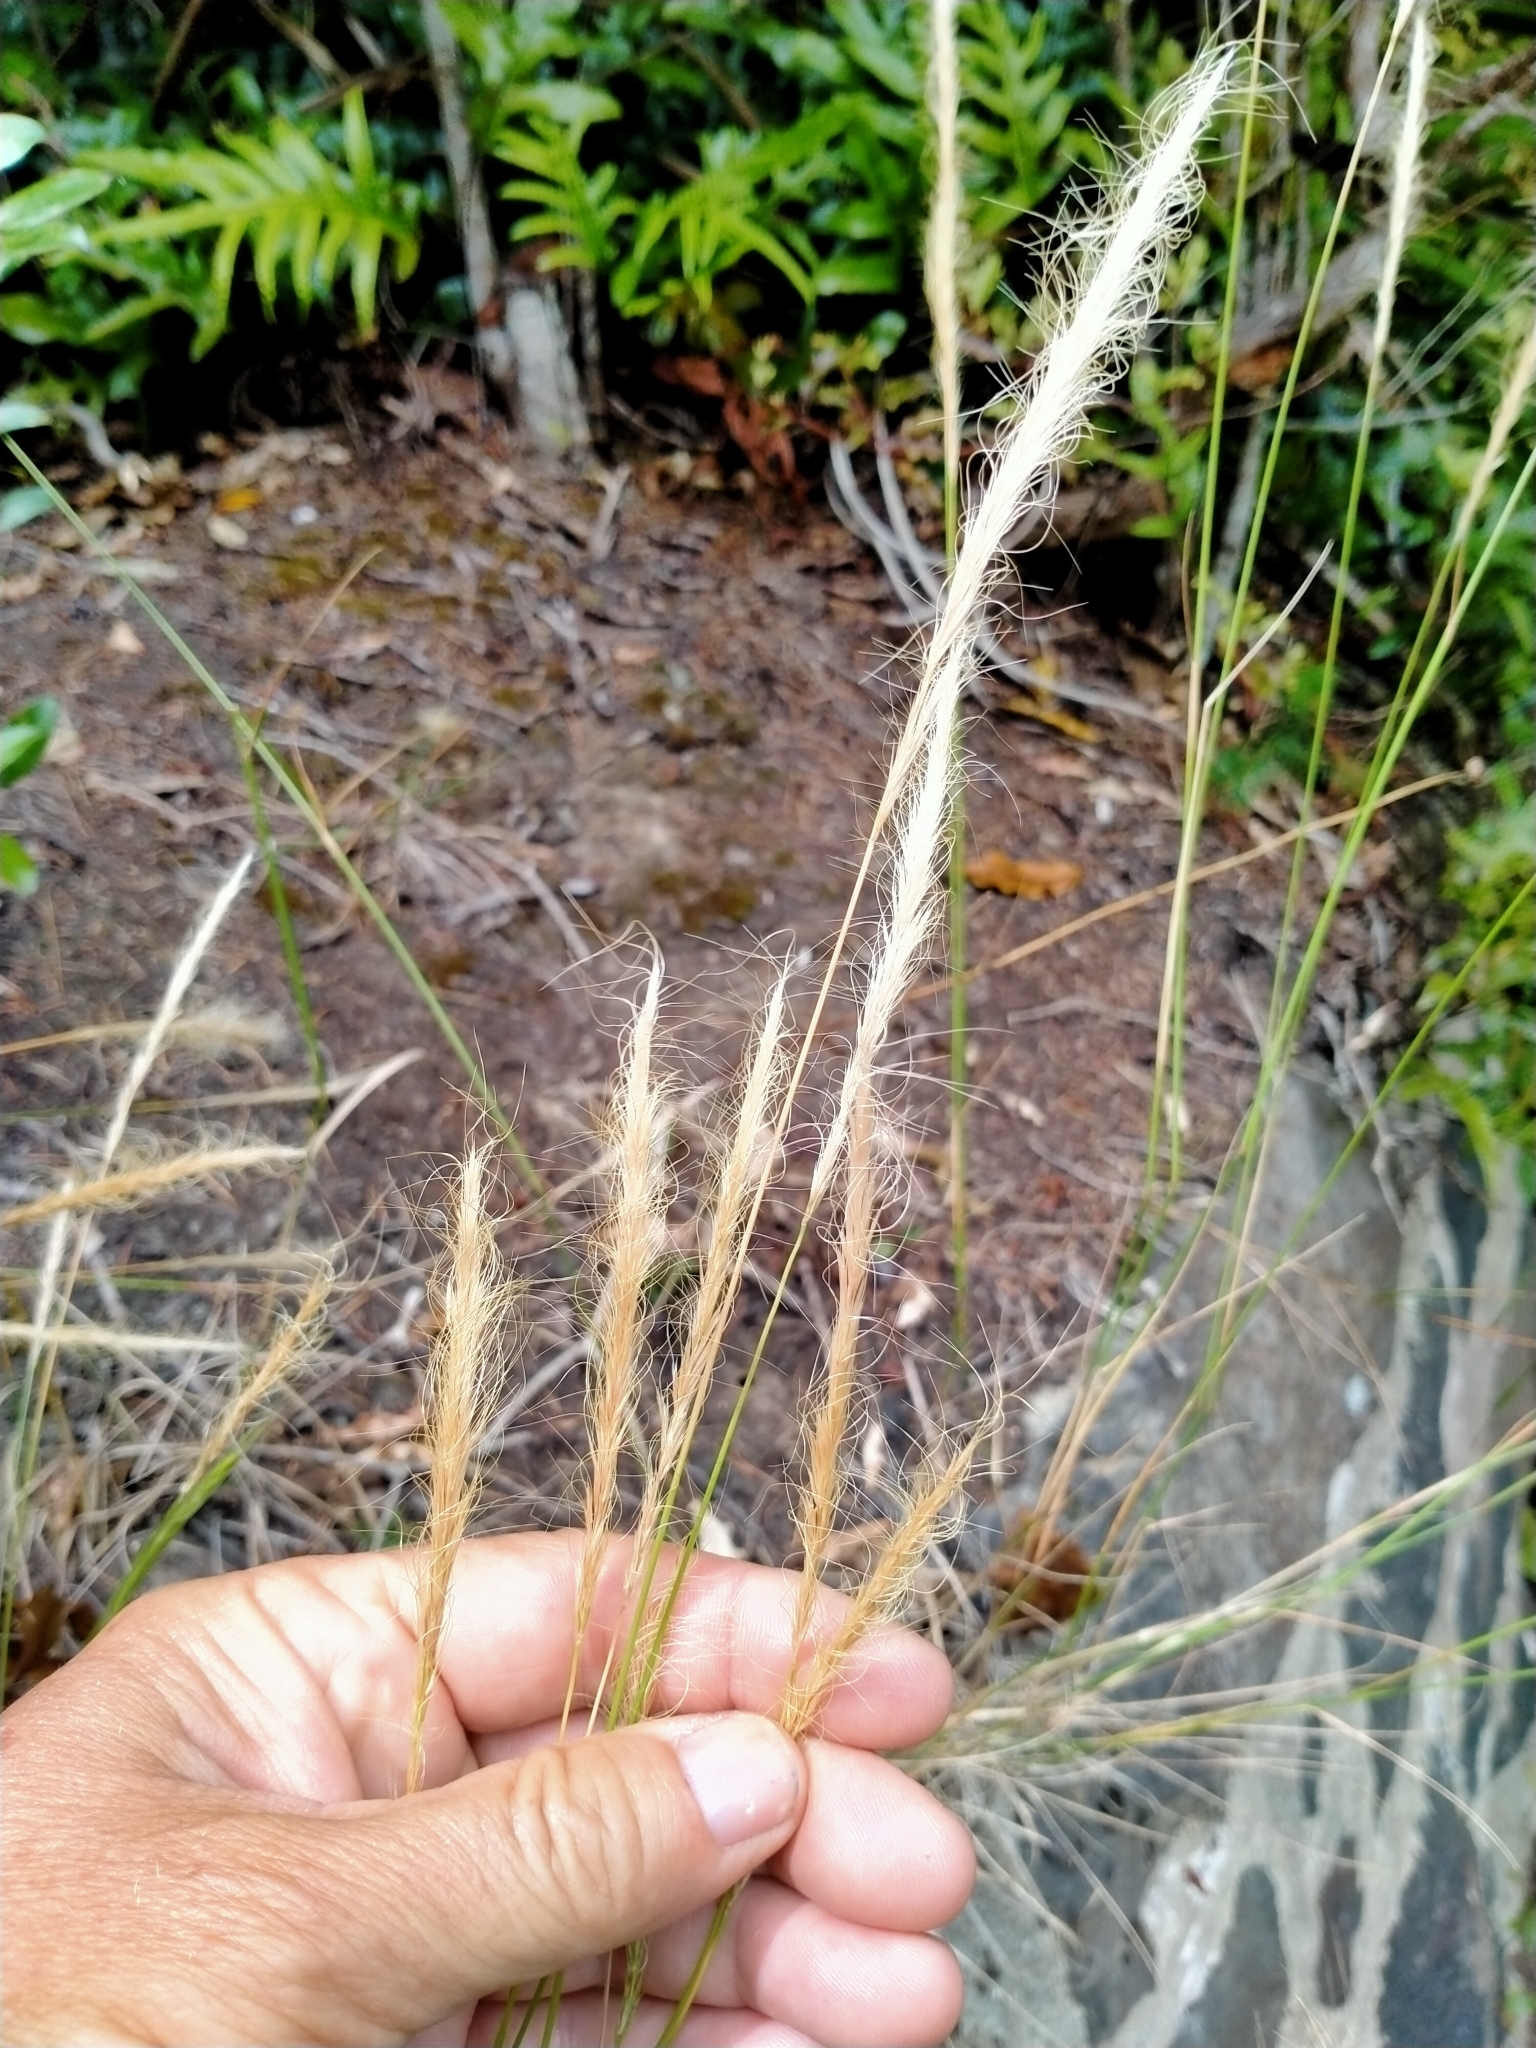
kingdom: Plantae
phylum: Tracheophyta
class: Liliopsida
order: Poales
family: Poaceae
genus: Dichelachne
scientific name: Dichelachne crinita
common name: Clovenfoot plumegrass
